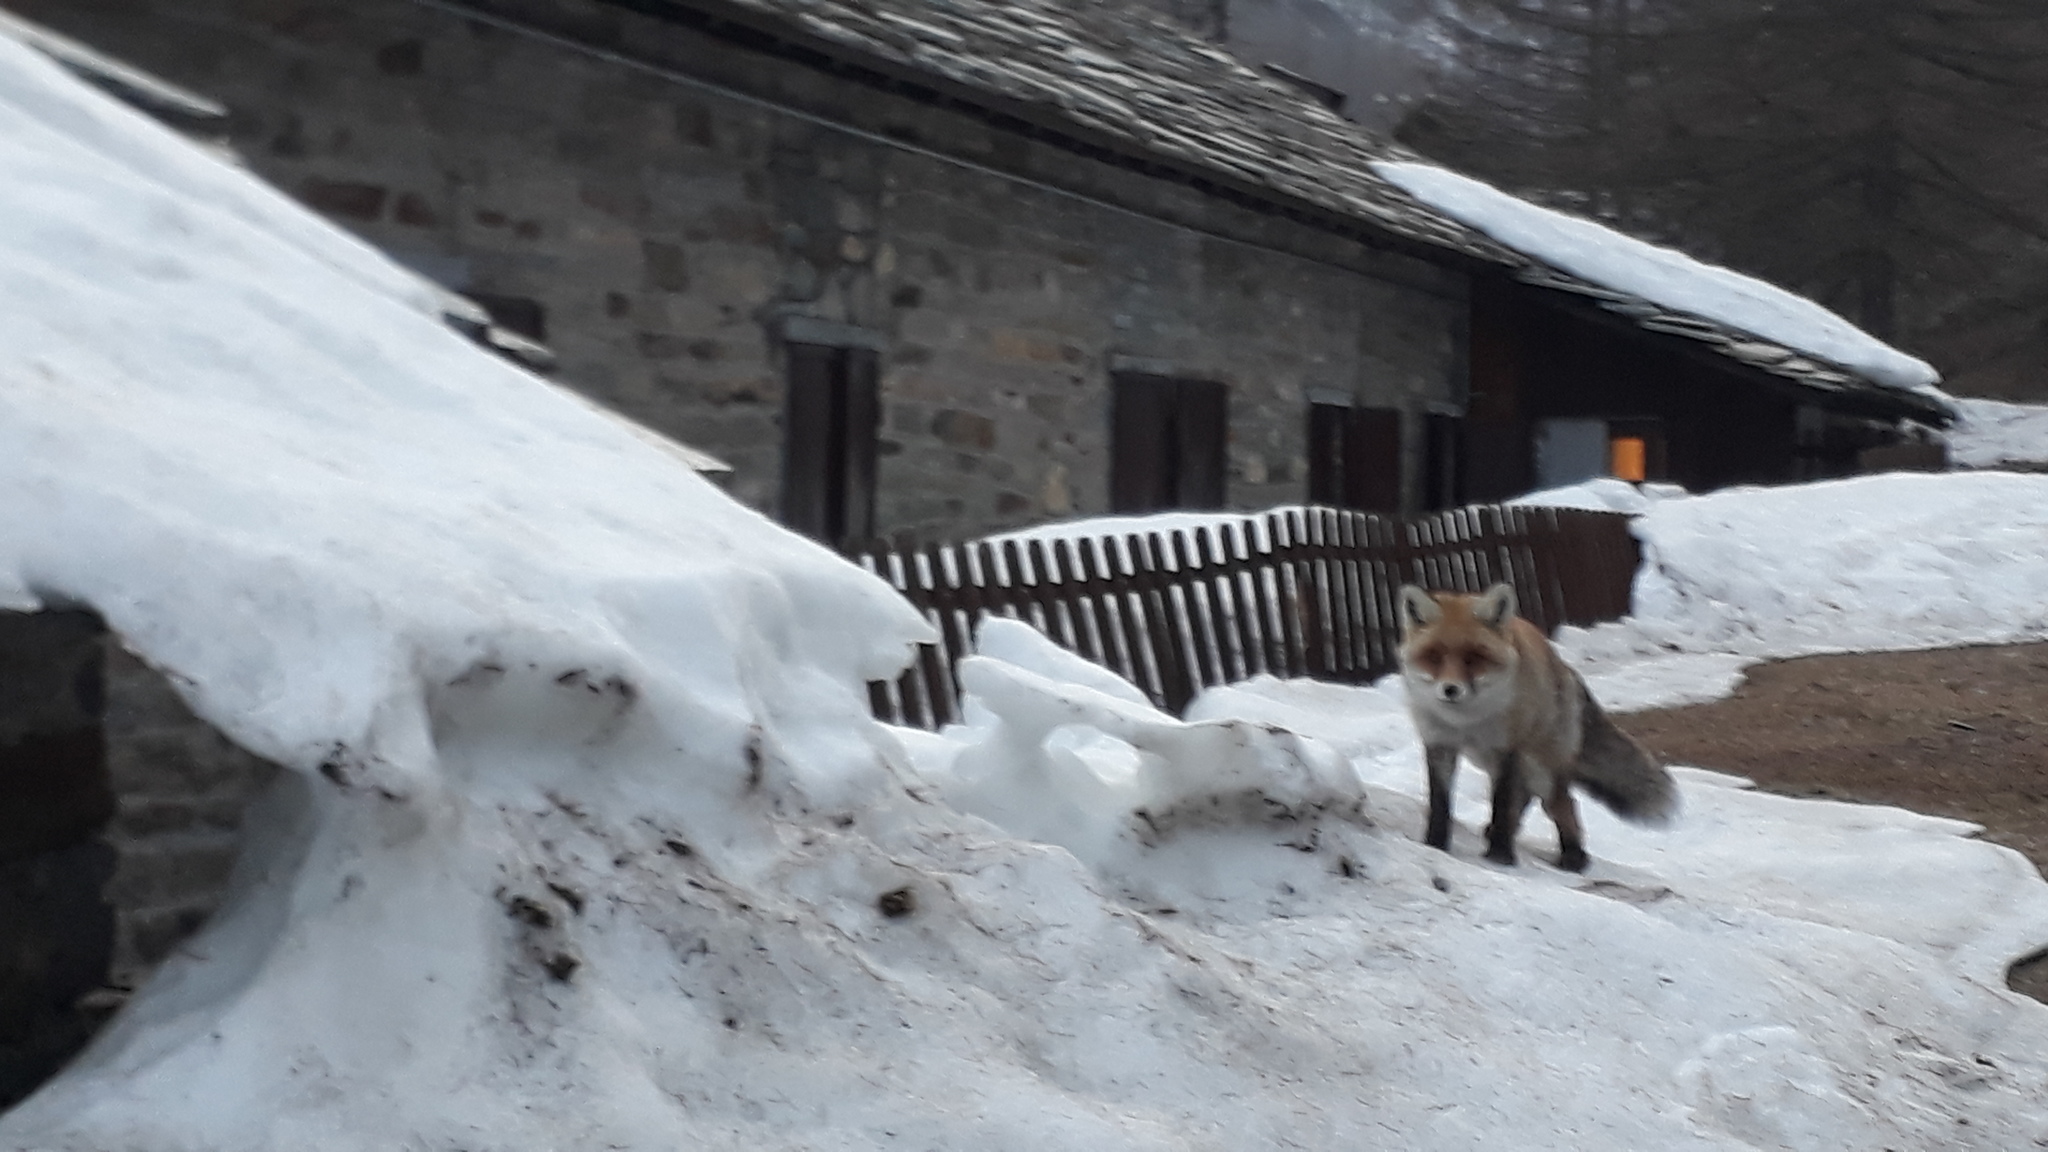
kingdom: Animalia
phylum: Chordata
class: Mammalia
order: Carnivora
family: Canidae
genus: Vulpes
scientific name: Vulpes vulpes
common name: Red fox
